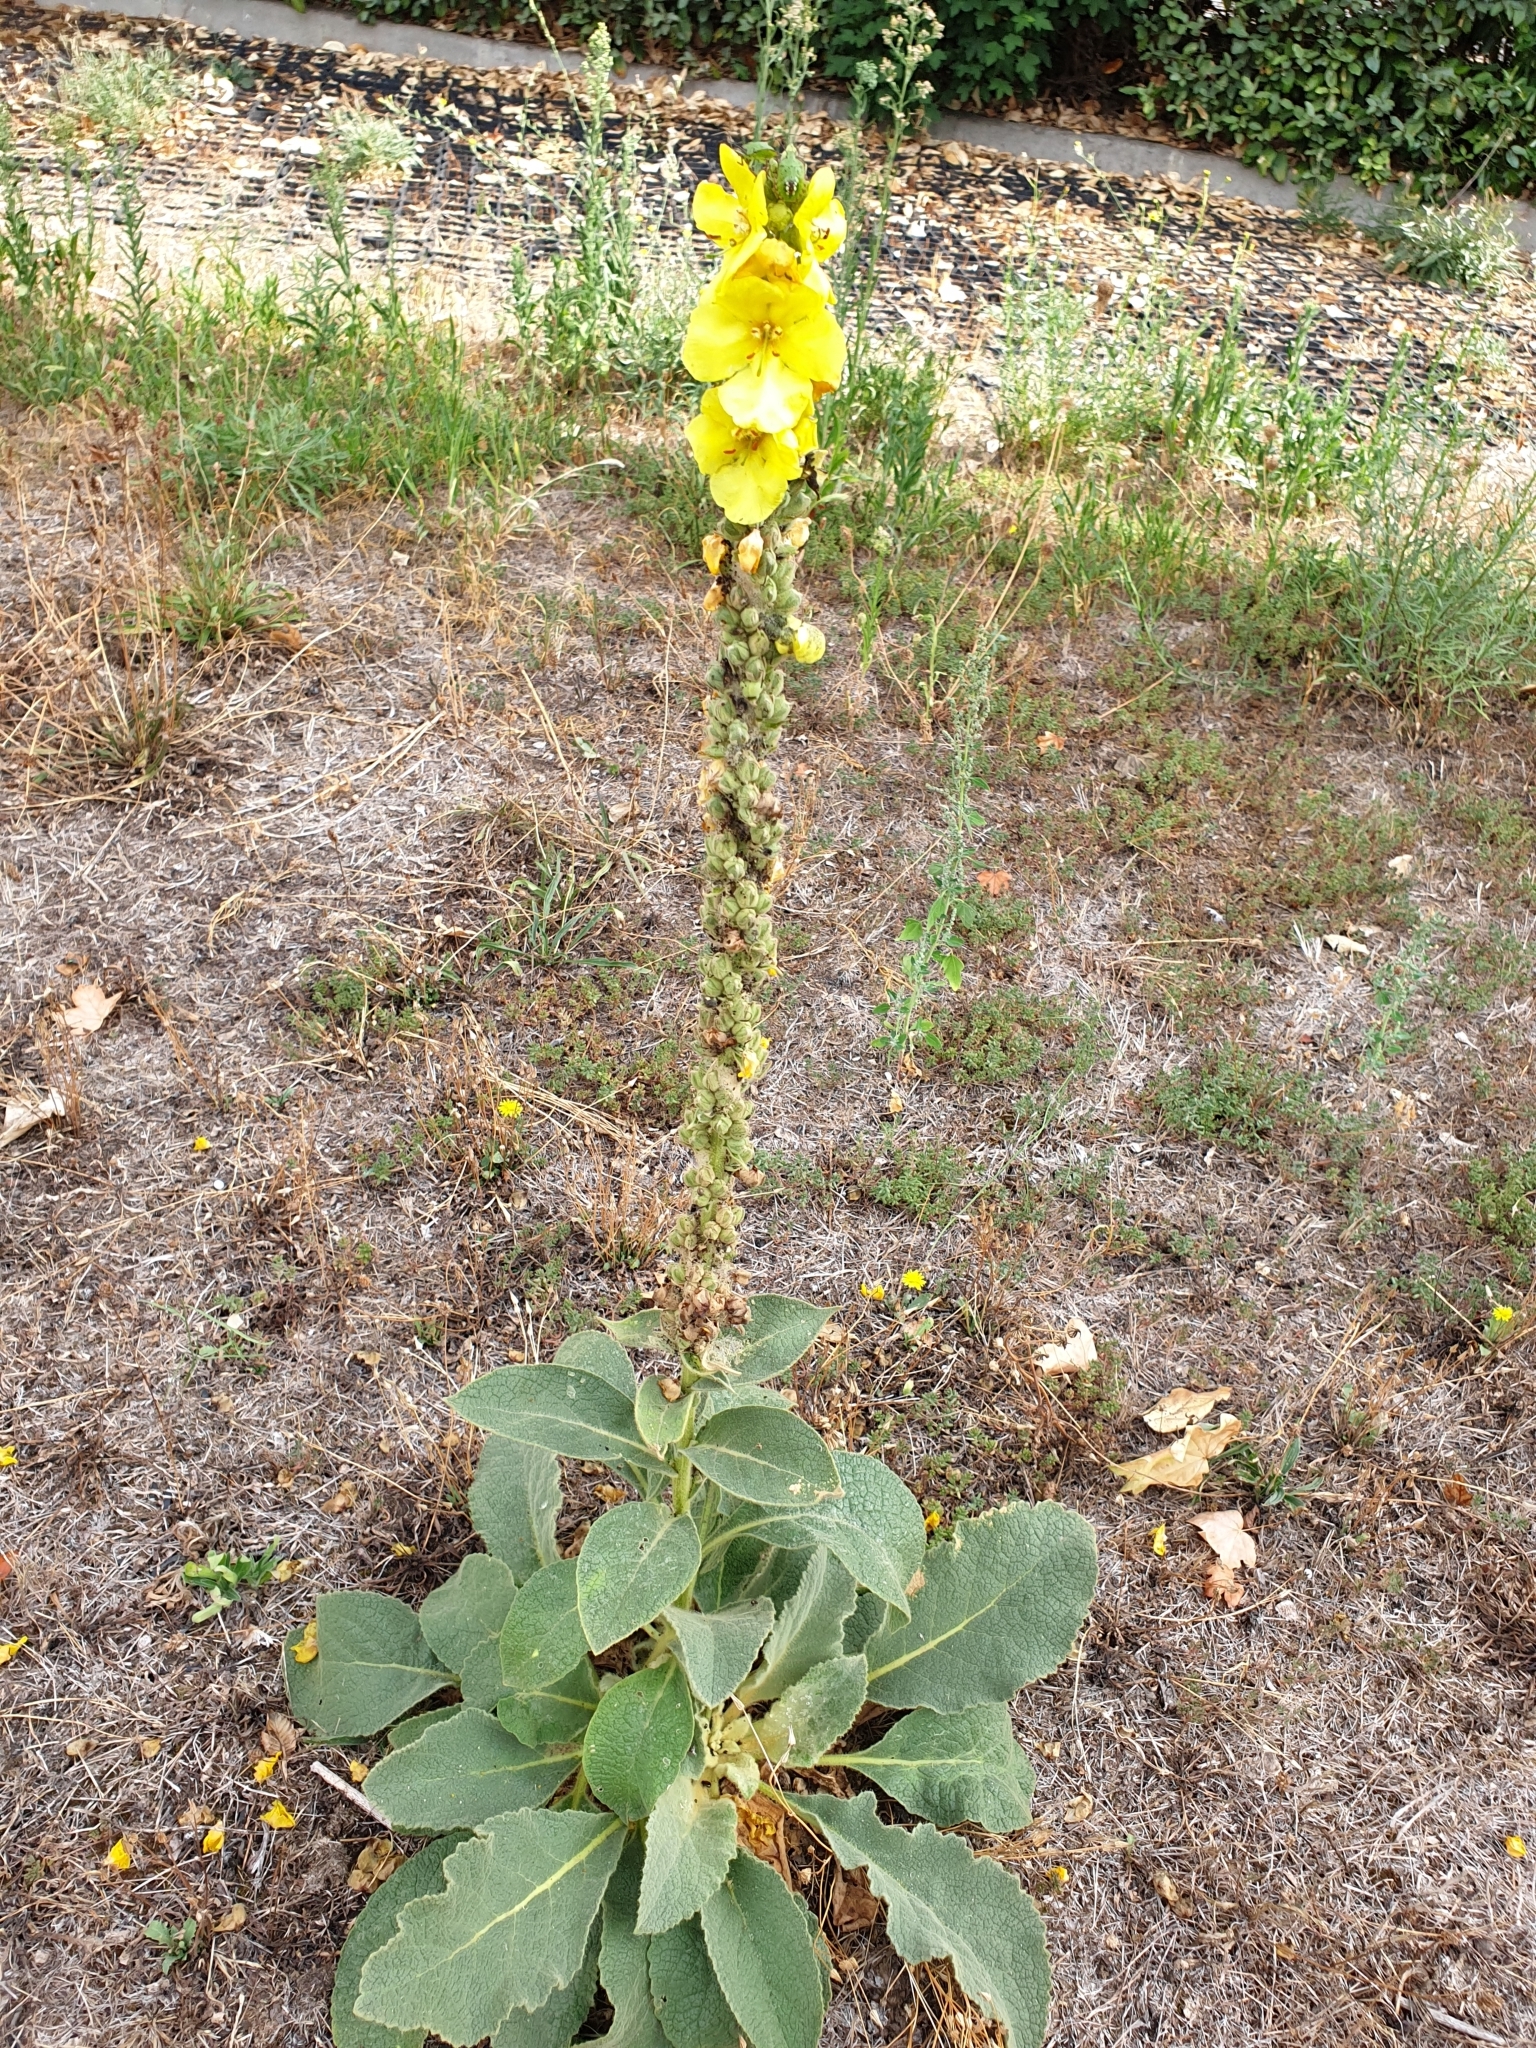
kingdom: Plantae
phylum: Tracheophyta
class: Magnoliopsida
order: Lamiales
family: Scrophulariaceae
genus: Verbascum
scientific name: Verbascum phlomoides
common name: Orange mullein
